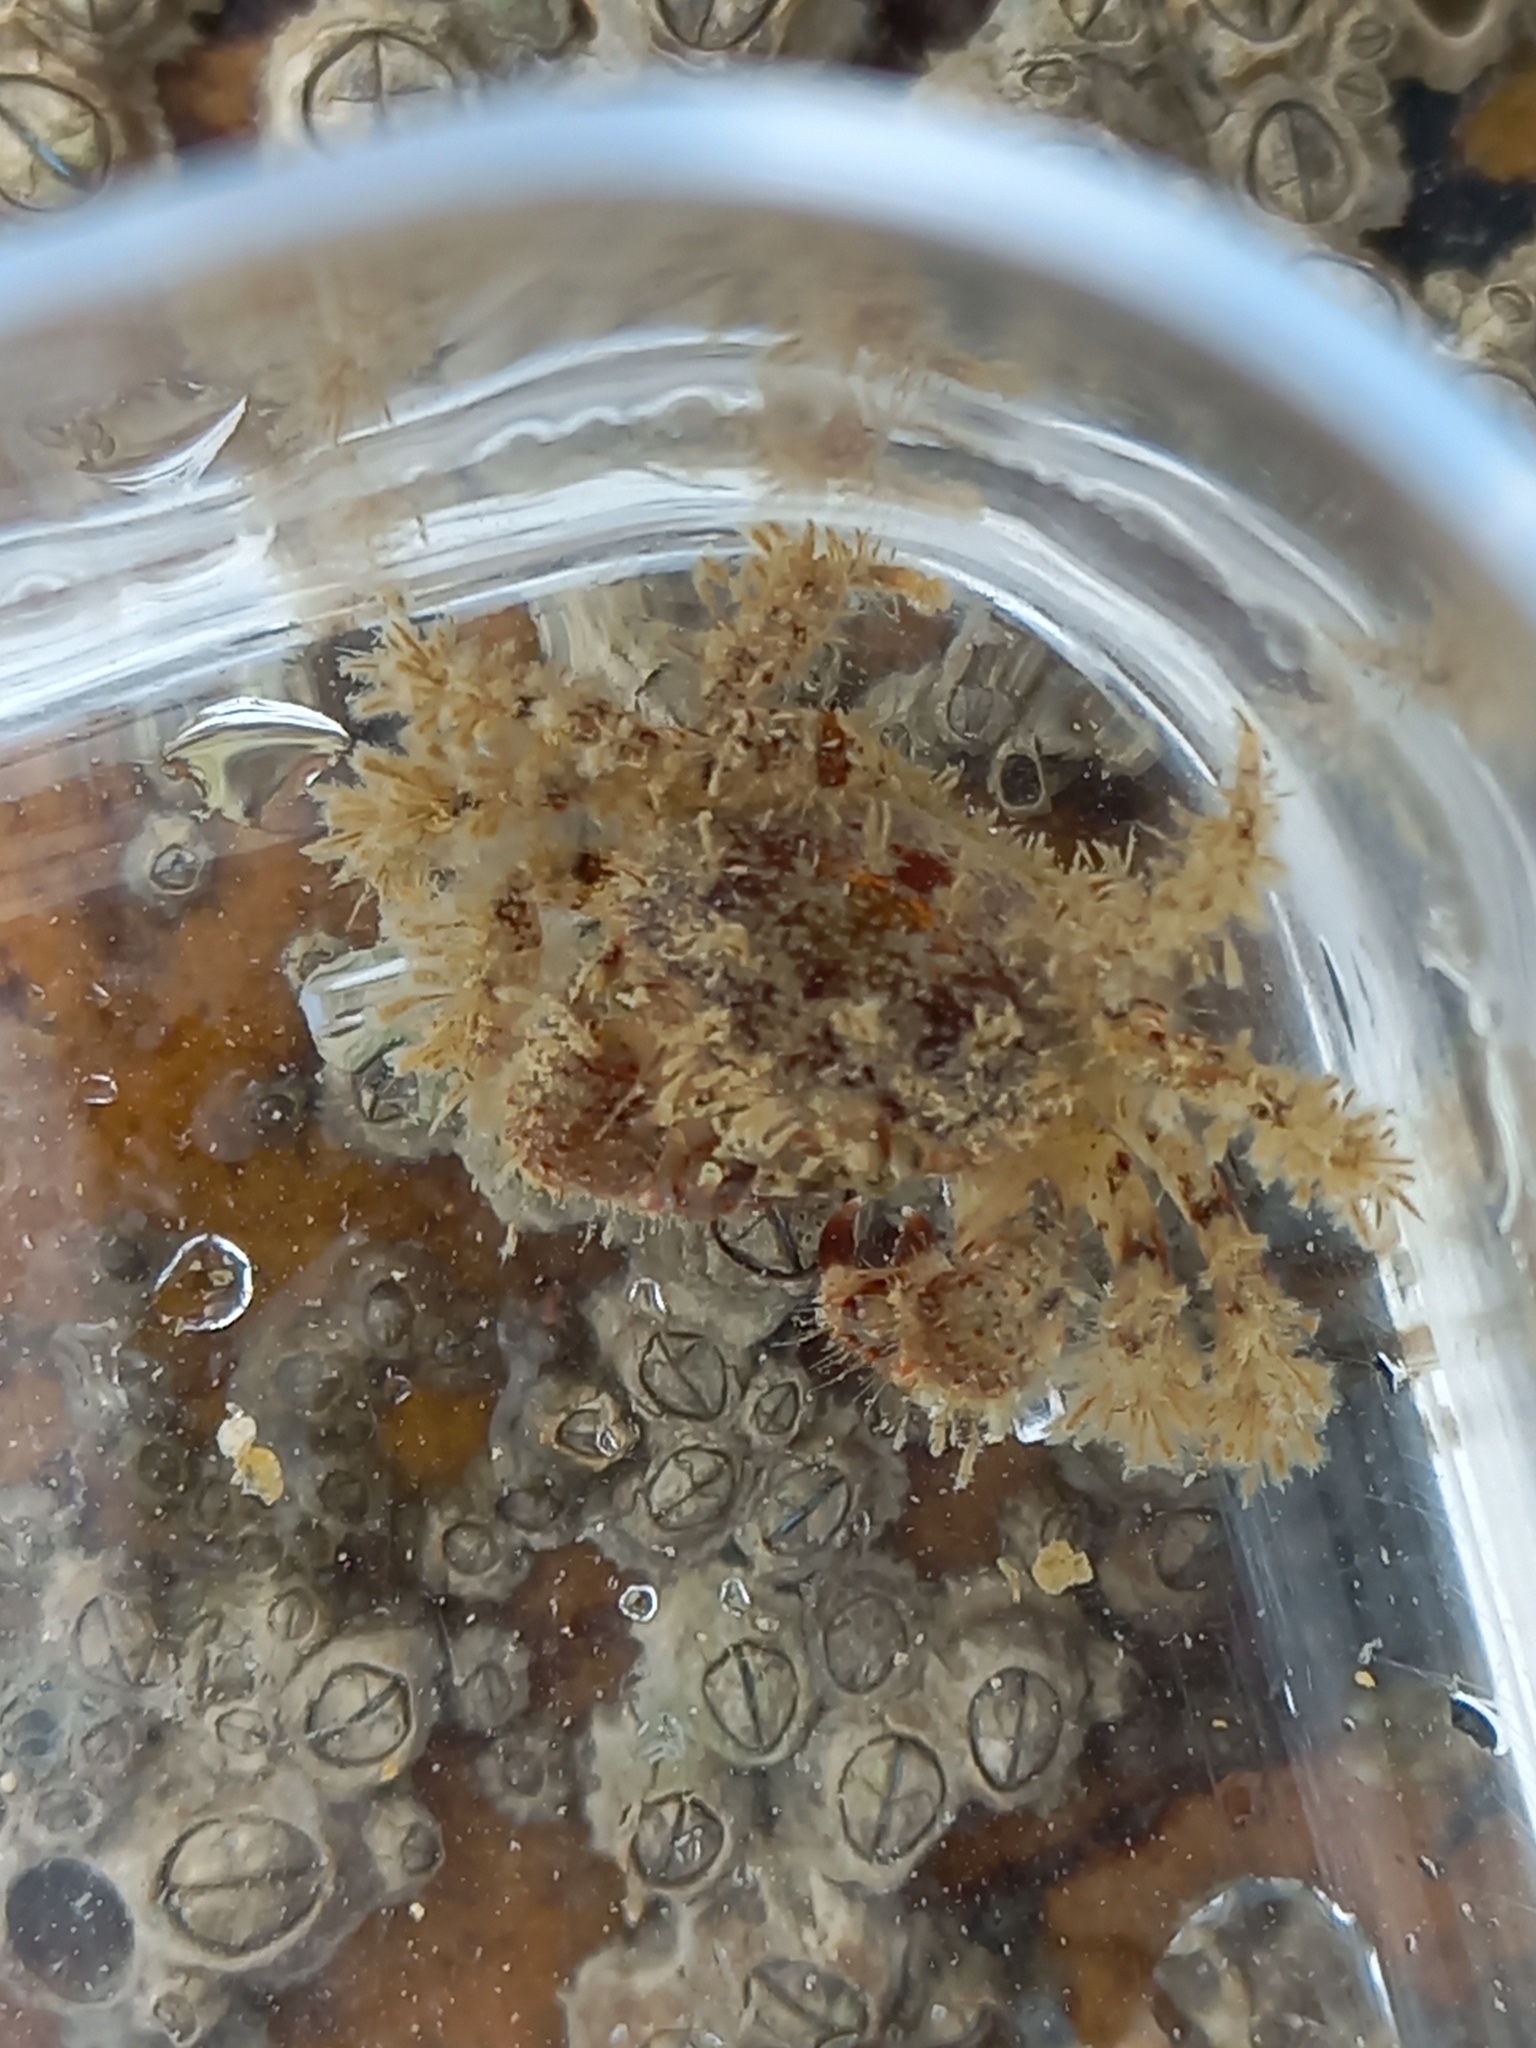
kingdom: Animalia
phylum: Arthropoda
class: Malacostraca
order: Decapoda
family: Pilumnidae
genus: Pilumnus
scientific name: Pilumnus hirtellus
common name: Hairy crab
